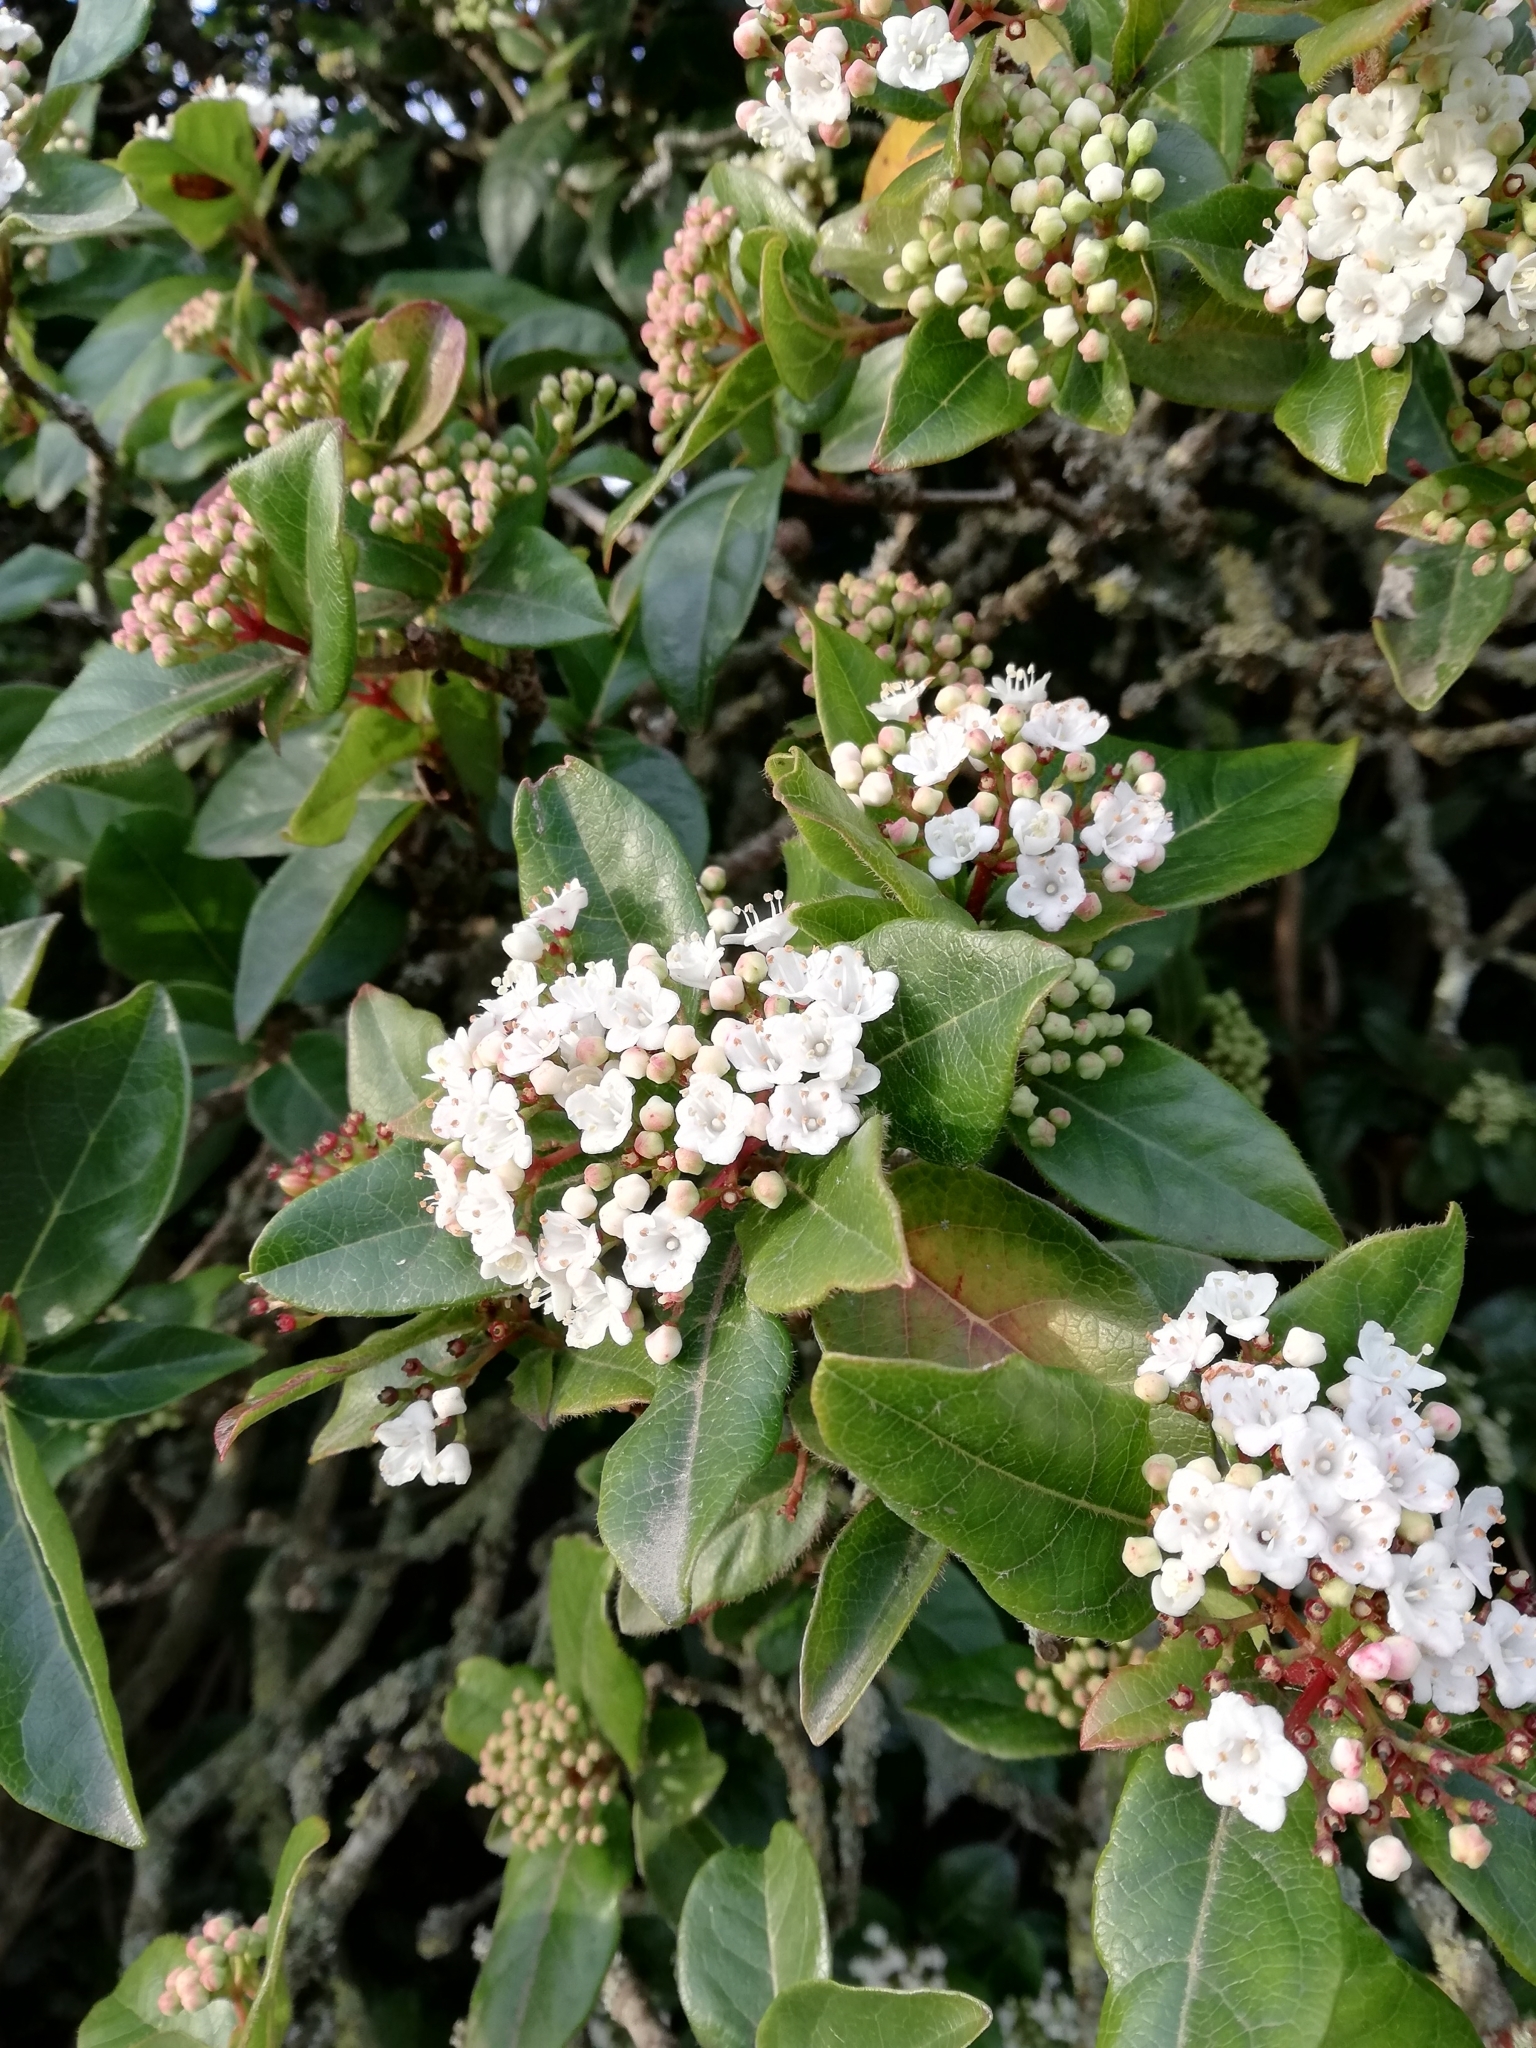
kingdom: Plantae
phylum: Tracheophyta
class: Magnoliopsida
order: Dipsacales
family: Viburnaceae
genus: Viburnum
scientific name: Viburnum tinus
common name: Laurustinus
